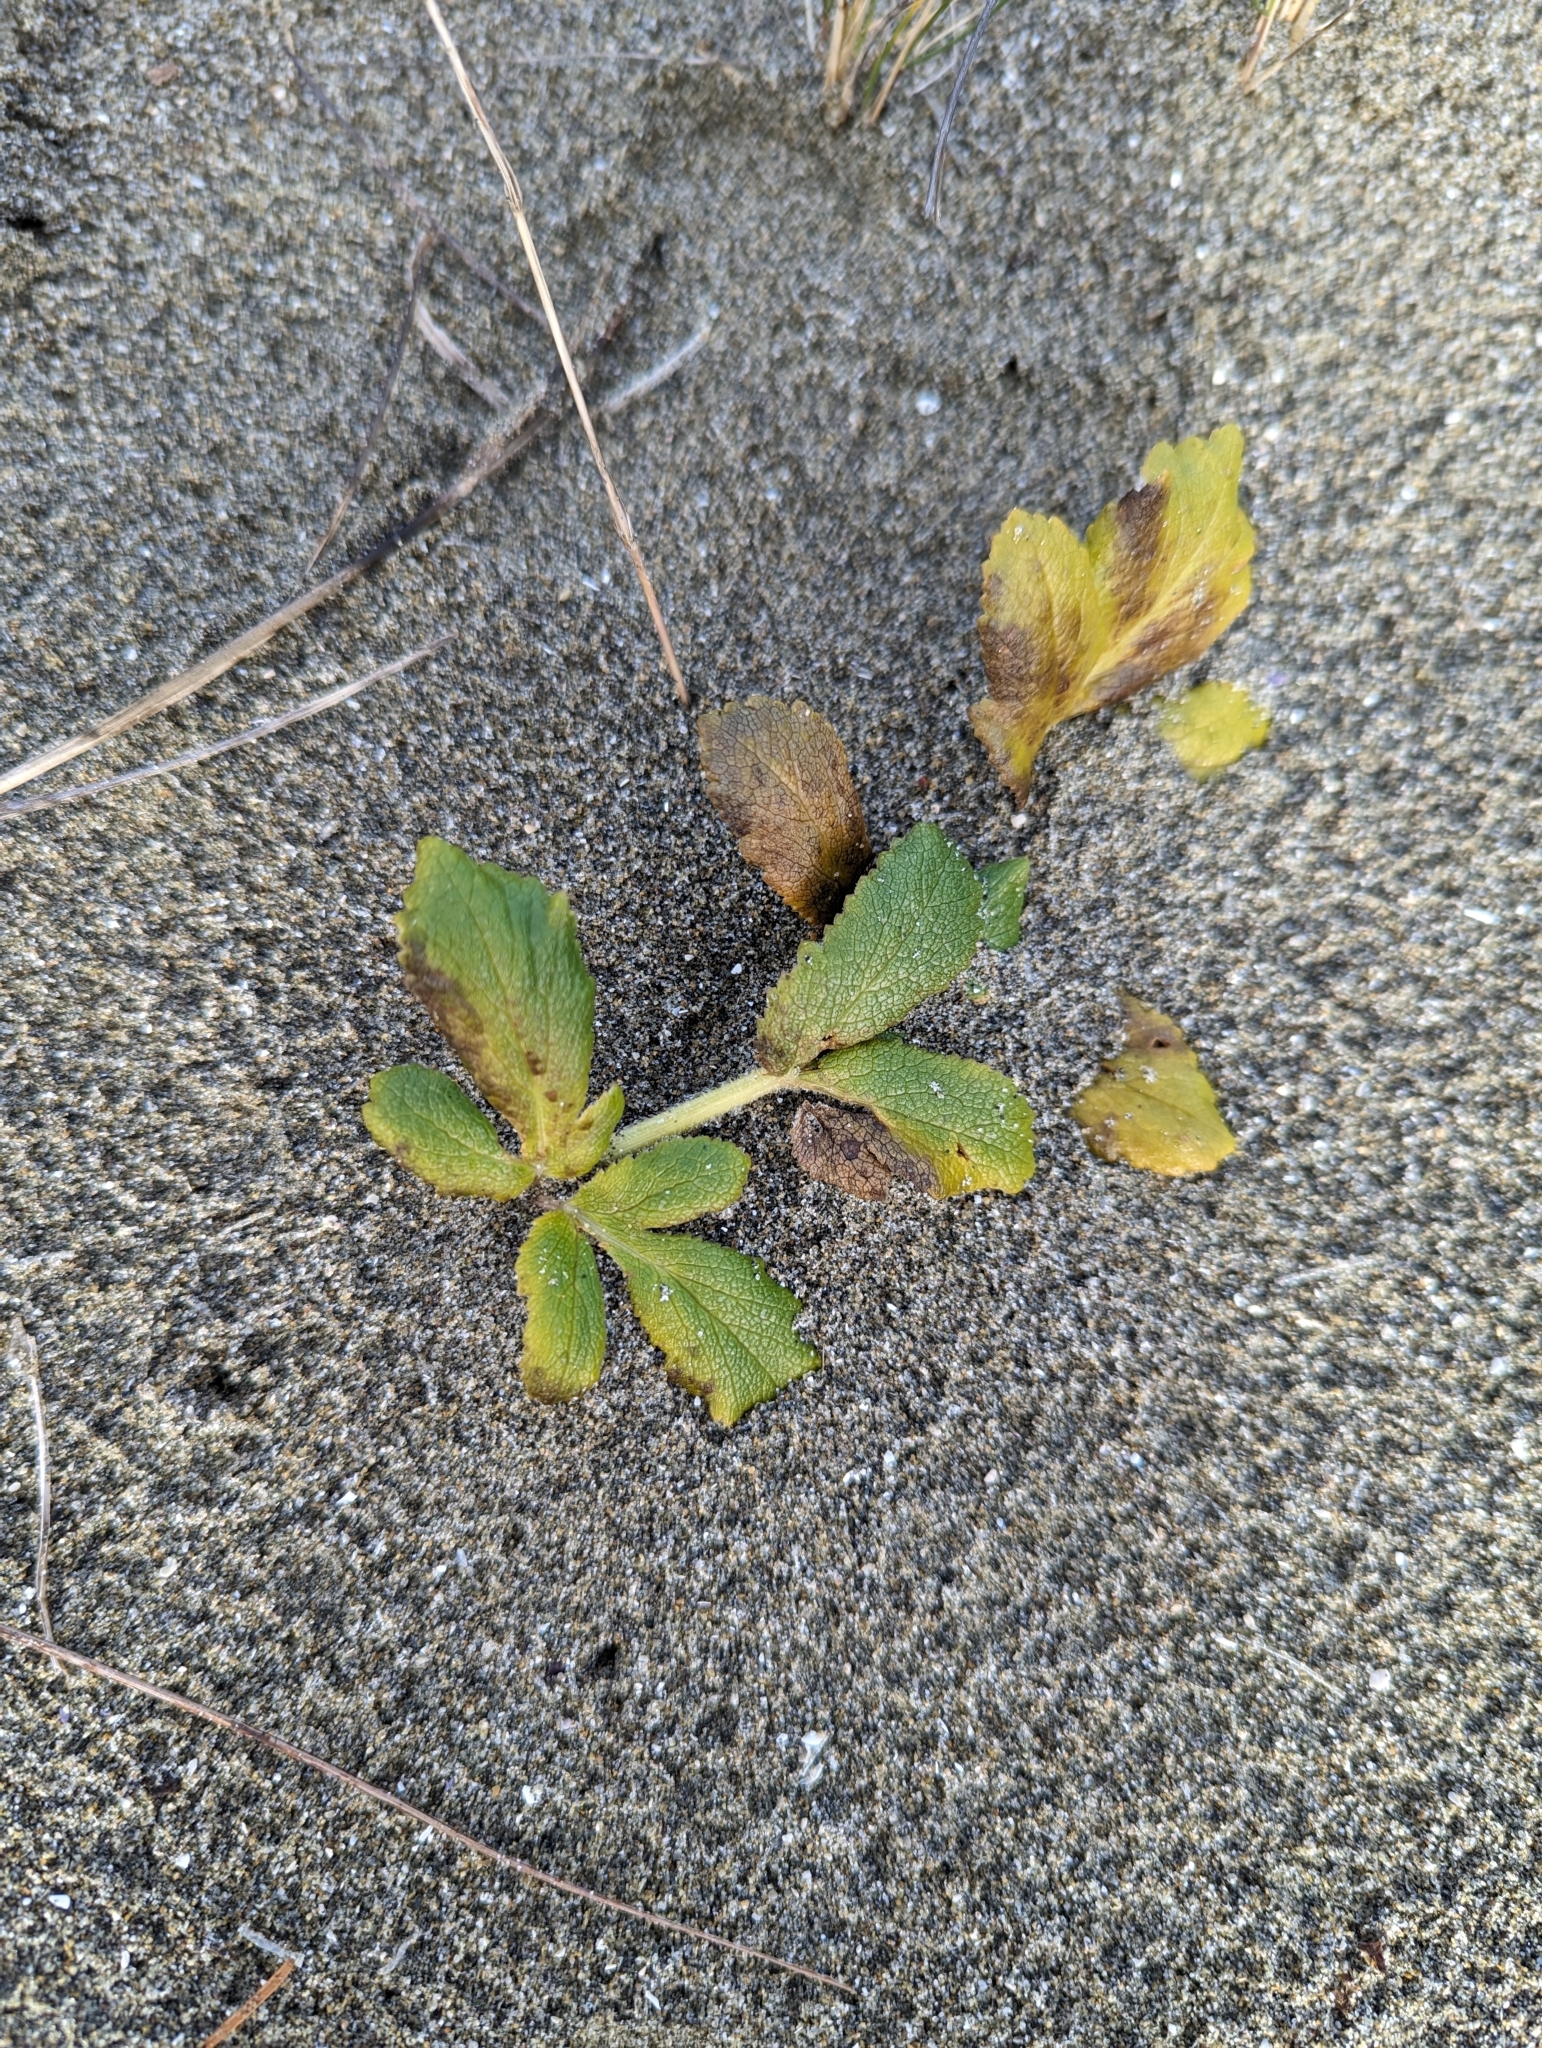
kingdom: Plantae
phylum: Tracheophyta
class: Magnoliopsida
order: Apiales
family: Apiaceae
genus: Angelica
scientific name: Angelica leiocarpa
